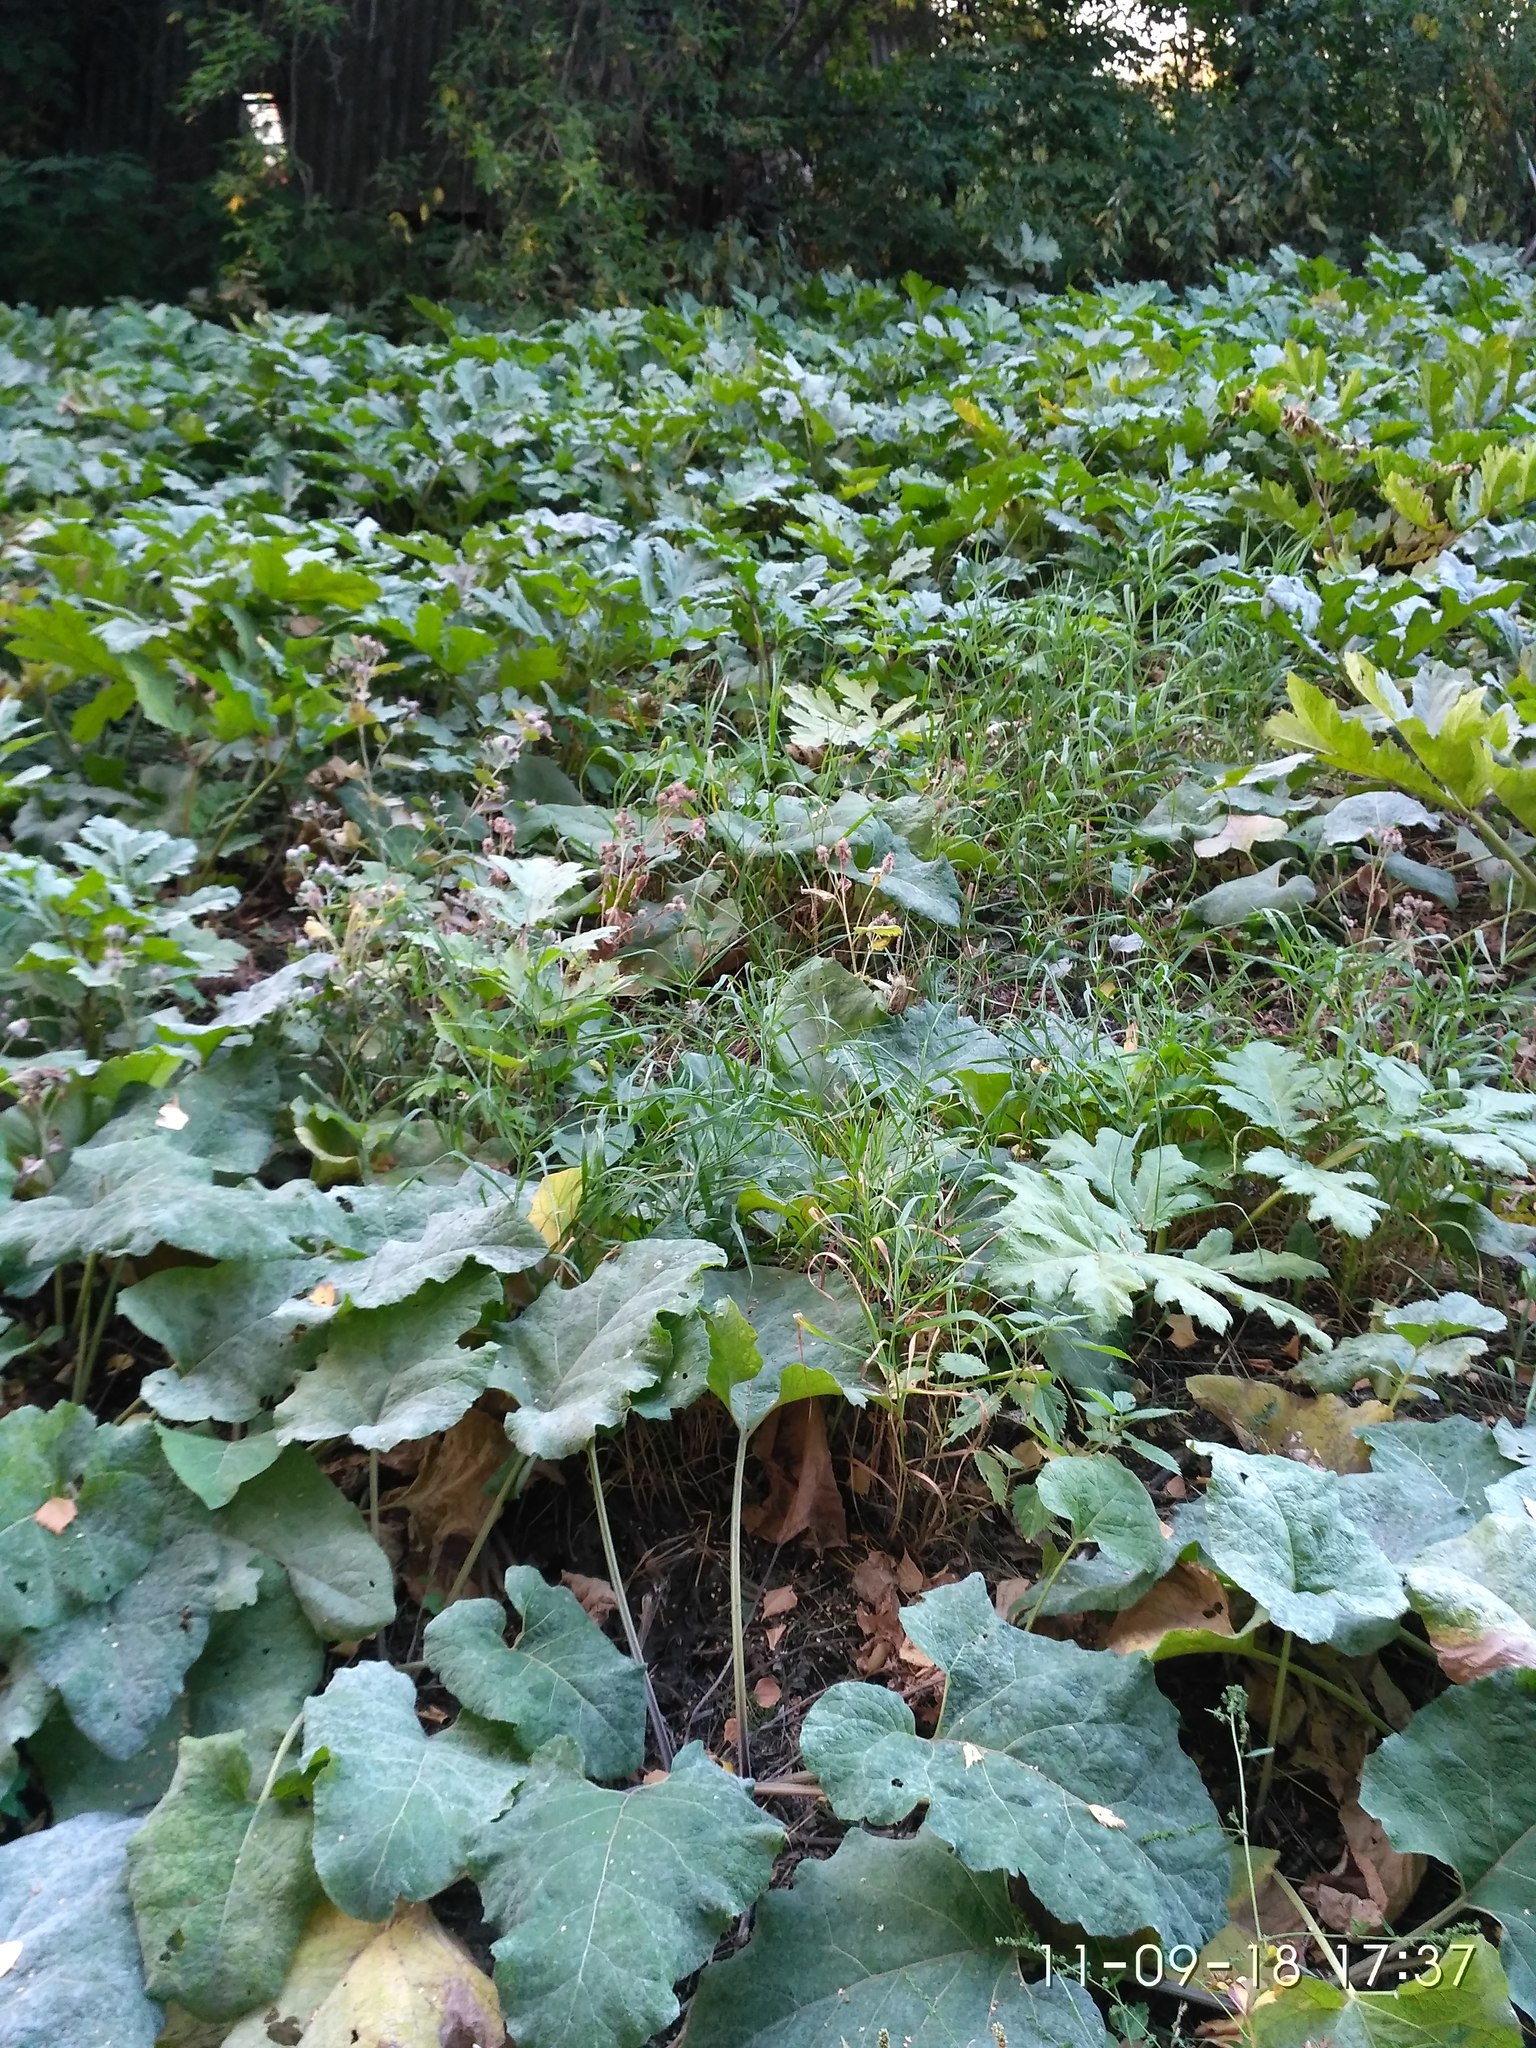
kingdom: Plantae
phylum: Tracheophyta
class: Magnoliopsida
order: Apiales
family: Apiaceae
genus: Heracleum
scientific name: Heracleum sosnowskyi
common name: Sosnowsky's hogweed
